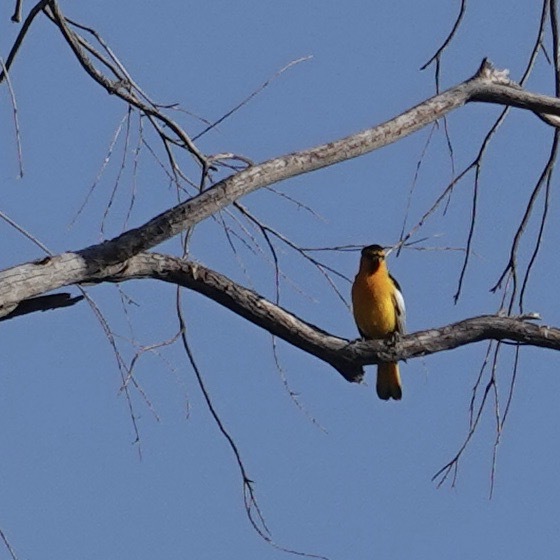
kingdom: Animalia
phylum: Chordata
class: Aves
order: Passeriformes
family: Icteridae
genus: Icterus
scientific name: Icterus bullockii
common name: Bullock's oriole
